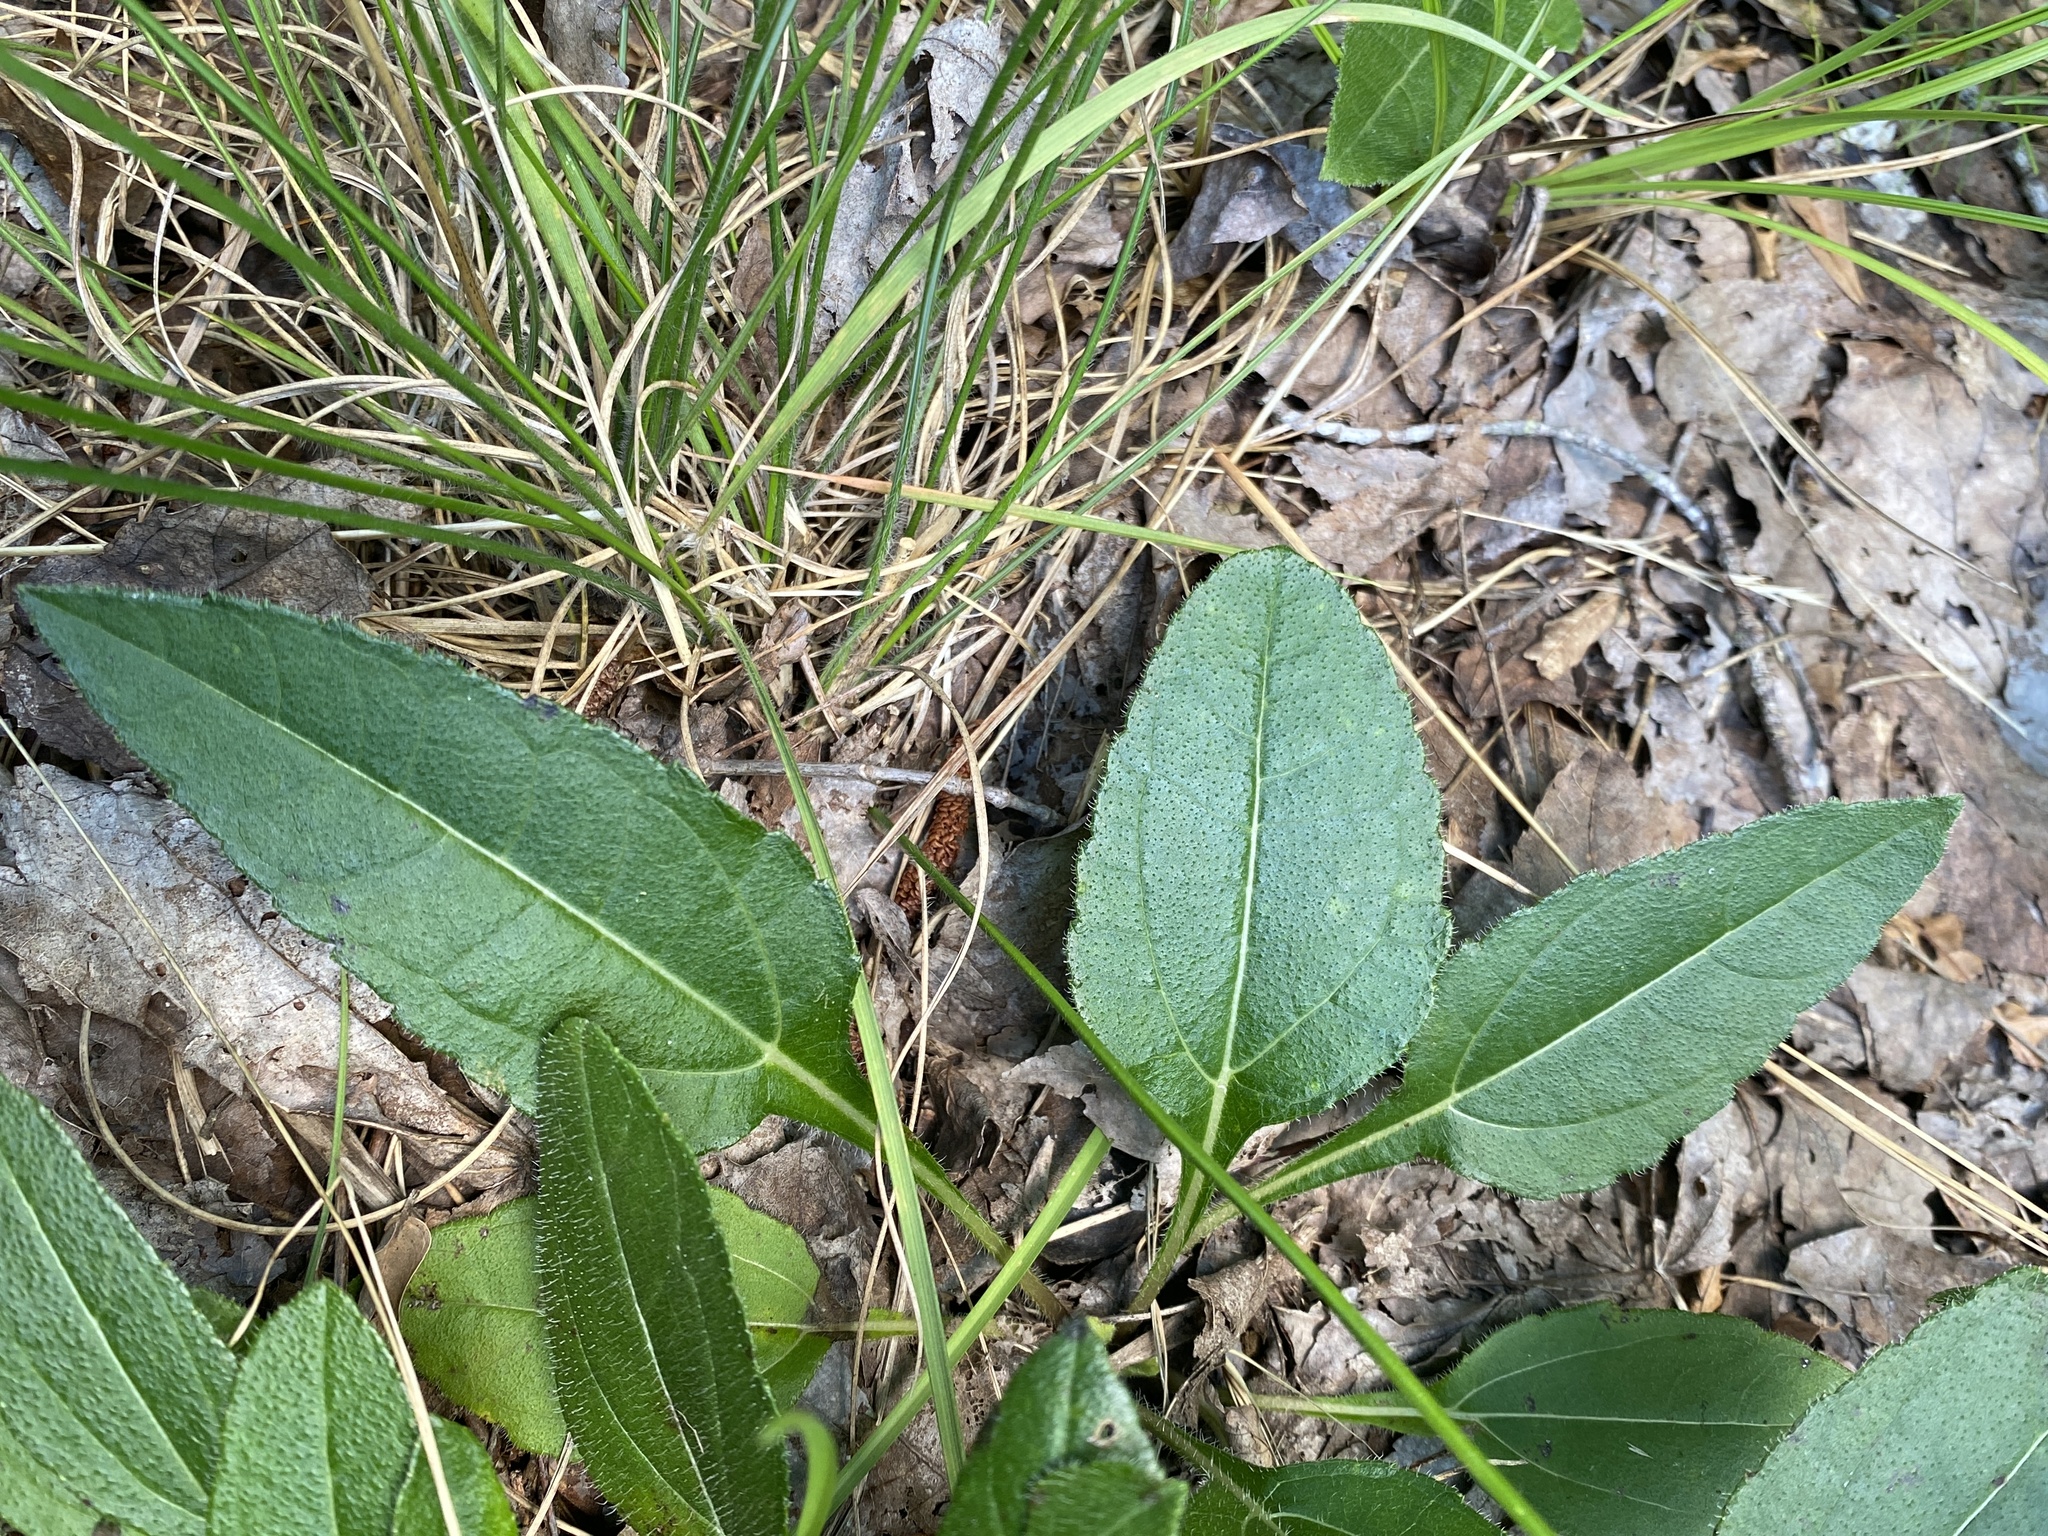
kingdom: Plantae
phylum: Tracheophyta
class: Magnoliopsida
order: Asterales
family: Asteraceae
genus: Helianthus
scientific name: Helianthus atrorubens
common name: Dark-eyed sunflower
